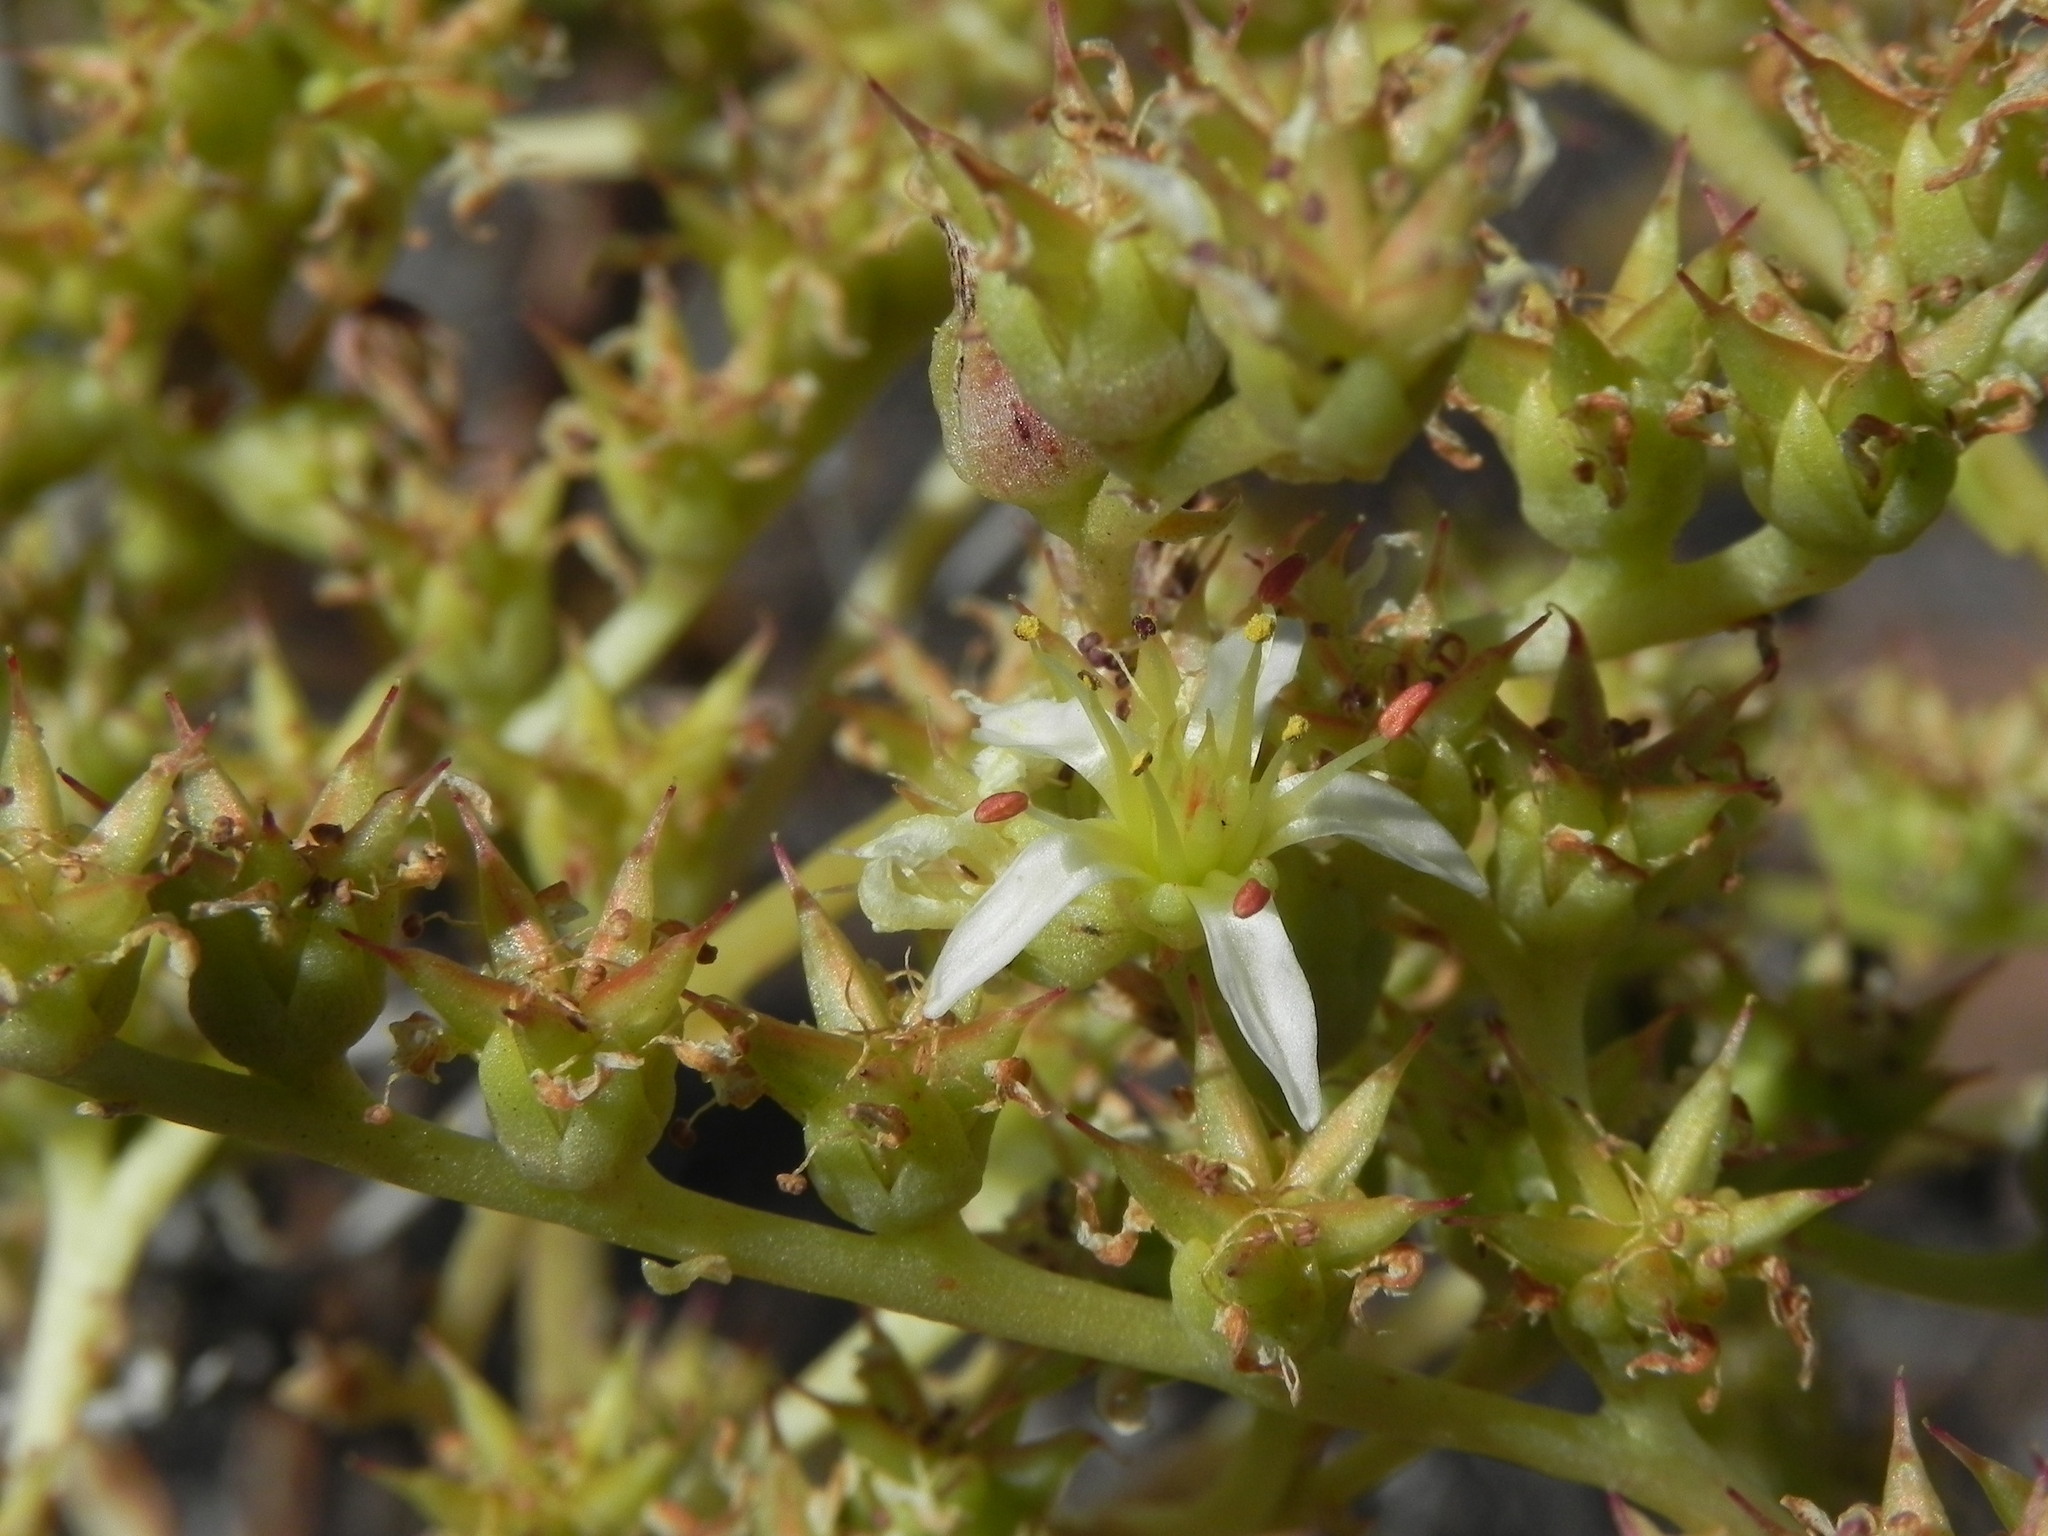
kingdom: Plantae
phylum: Tracheophyta
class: Magnoliopsida
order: Saxifragales
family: Crassulaceae
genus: Dudleya
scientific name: Dudleya edulis
